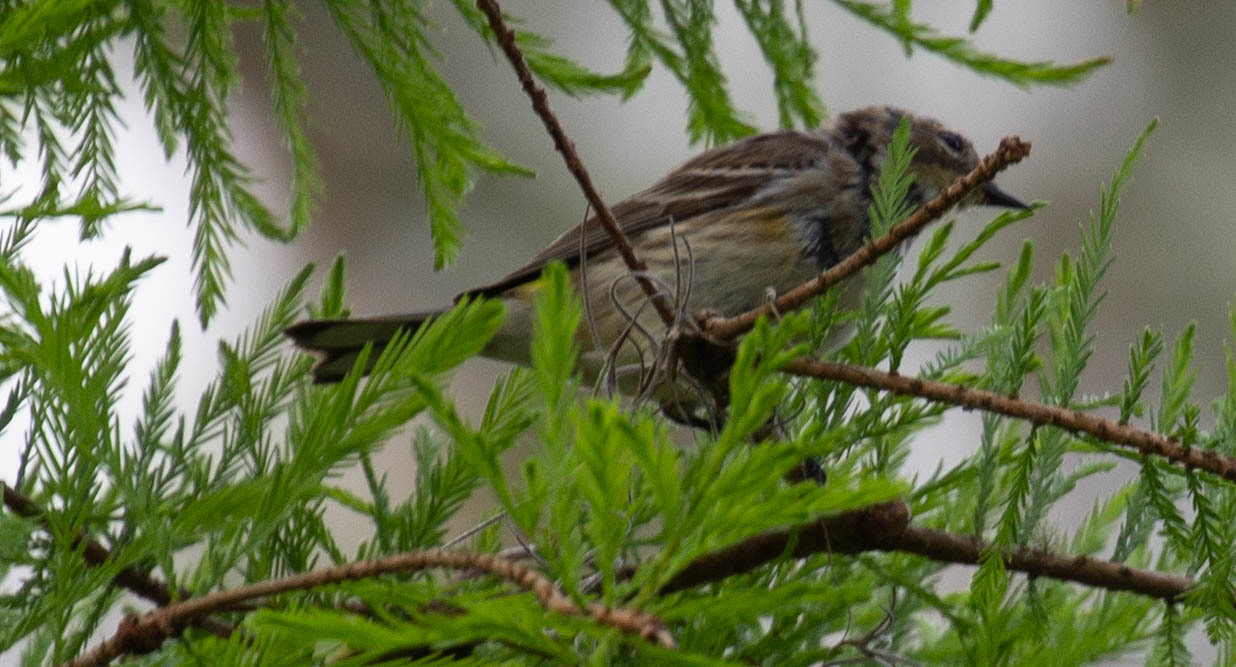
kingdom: Animalia
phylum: Chordata
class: Aves
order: Passeriformes
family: Parulidae
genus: Setophaga
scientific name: Setophaga coronata
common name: Myrtle warbler
